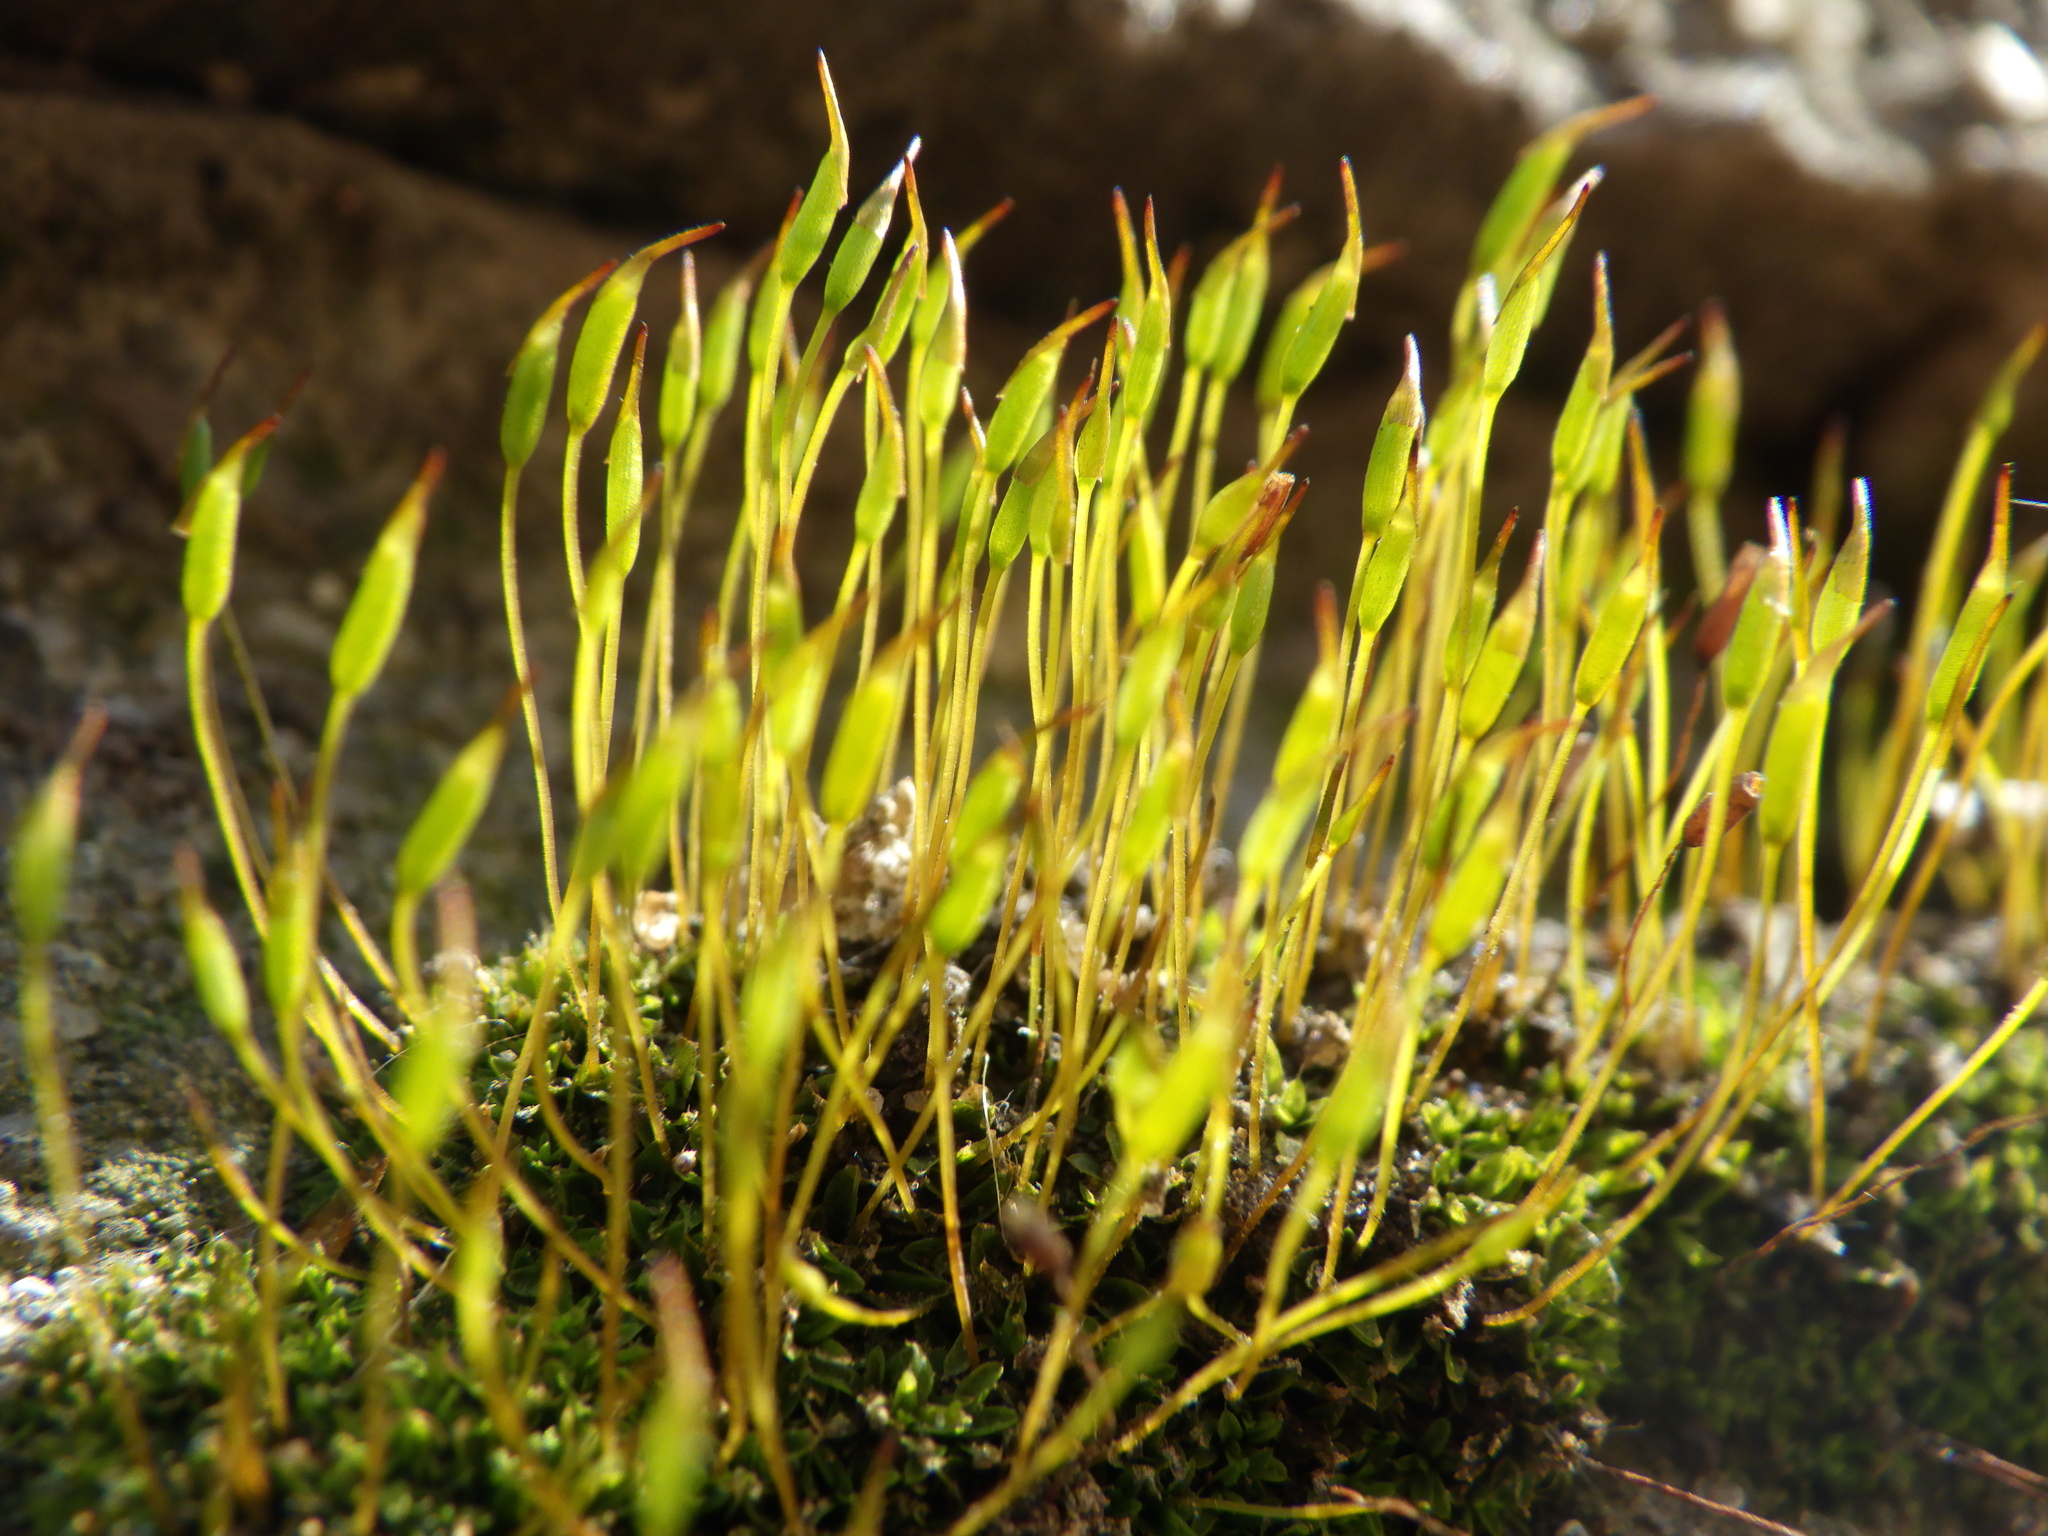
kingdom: Plantae
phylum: Bryophyta
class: Bryopsida
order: Pottiales
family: Pottiaceae
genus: Tortula
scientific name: Tortula muralis
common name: Wall screw-moss
